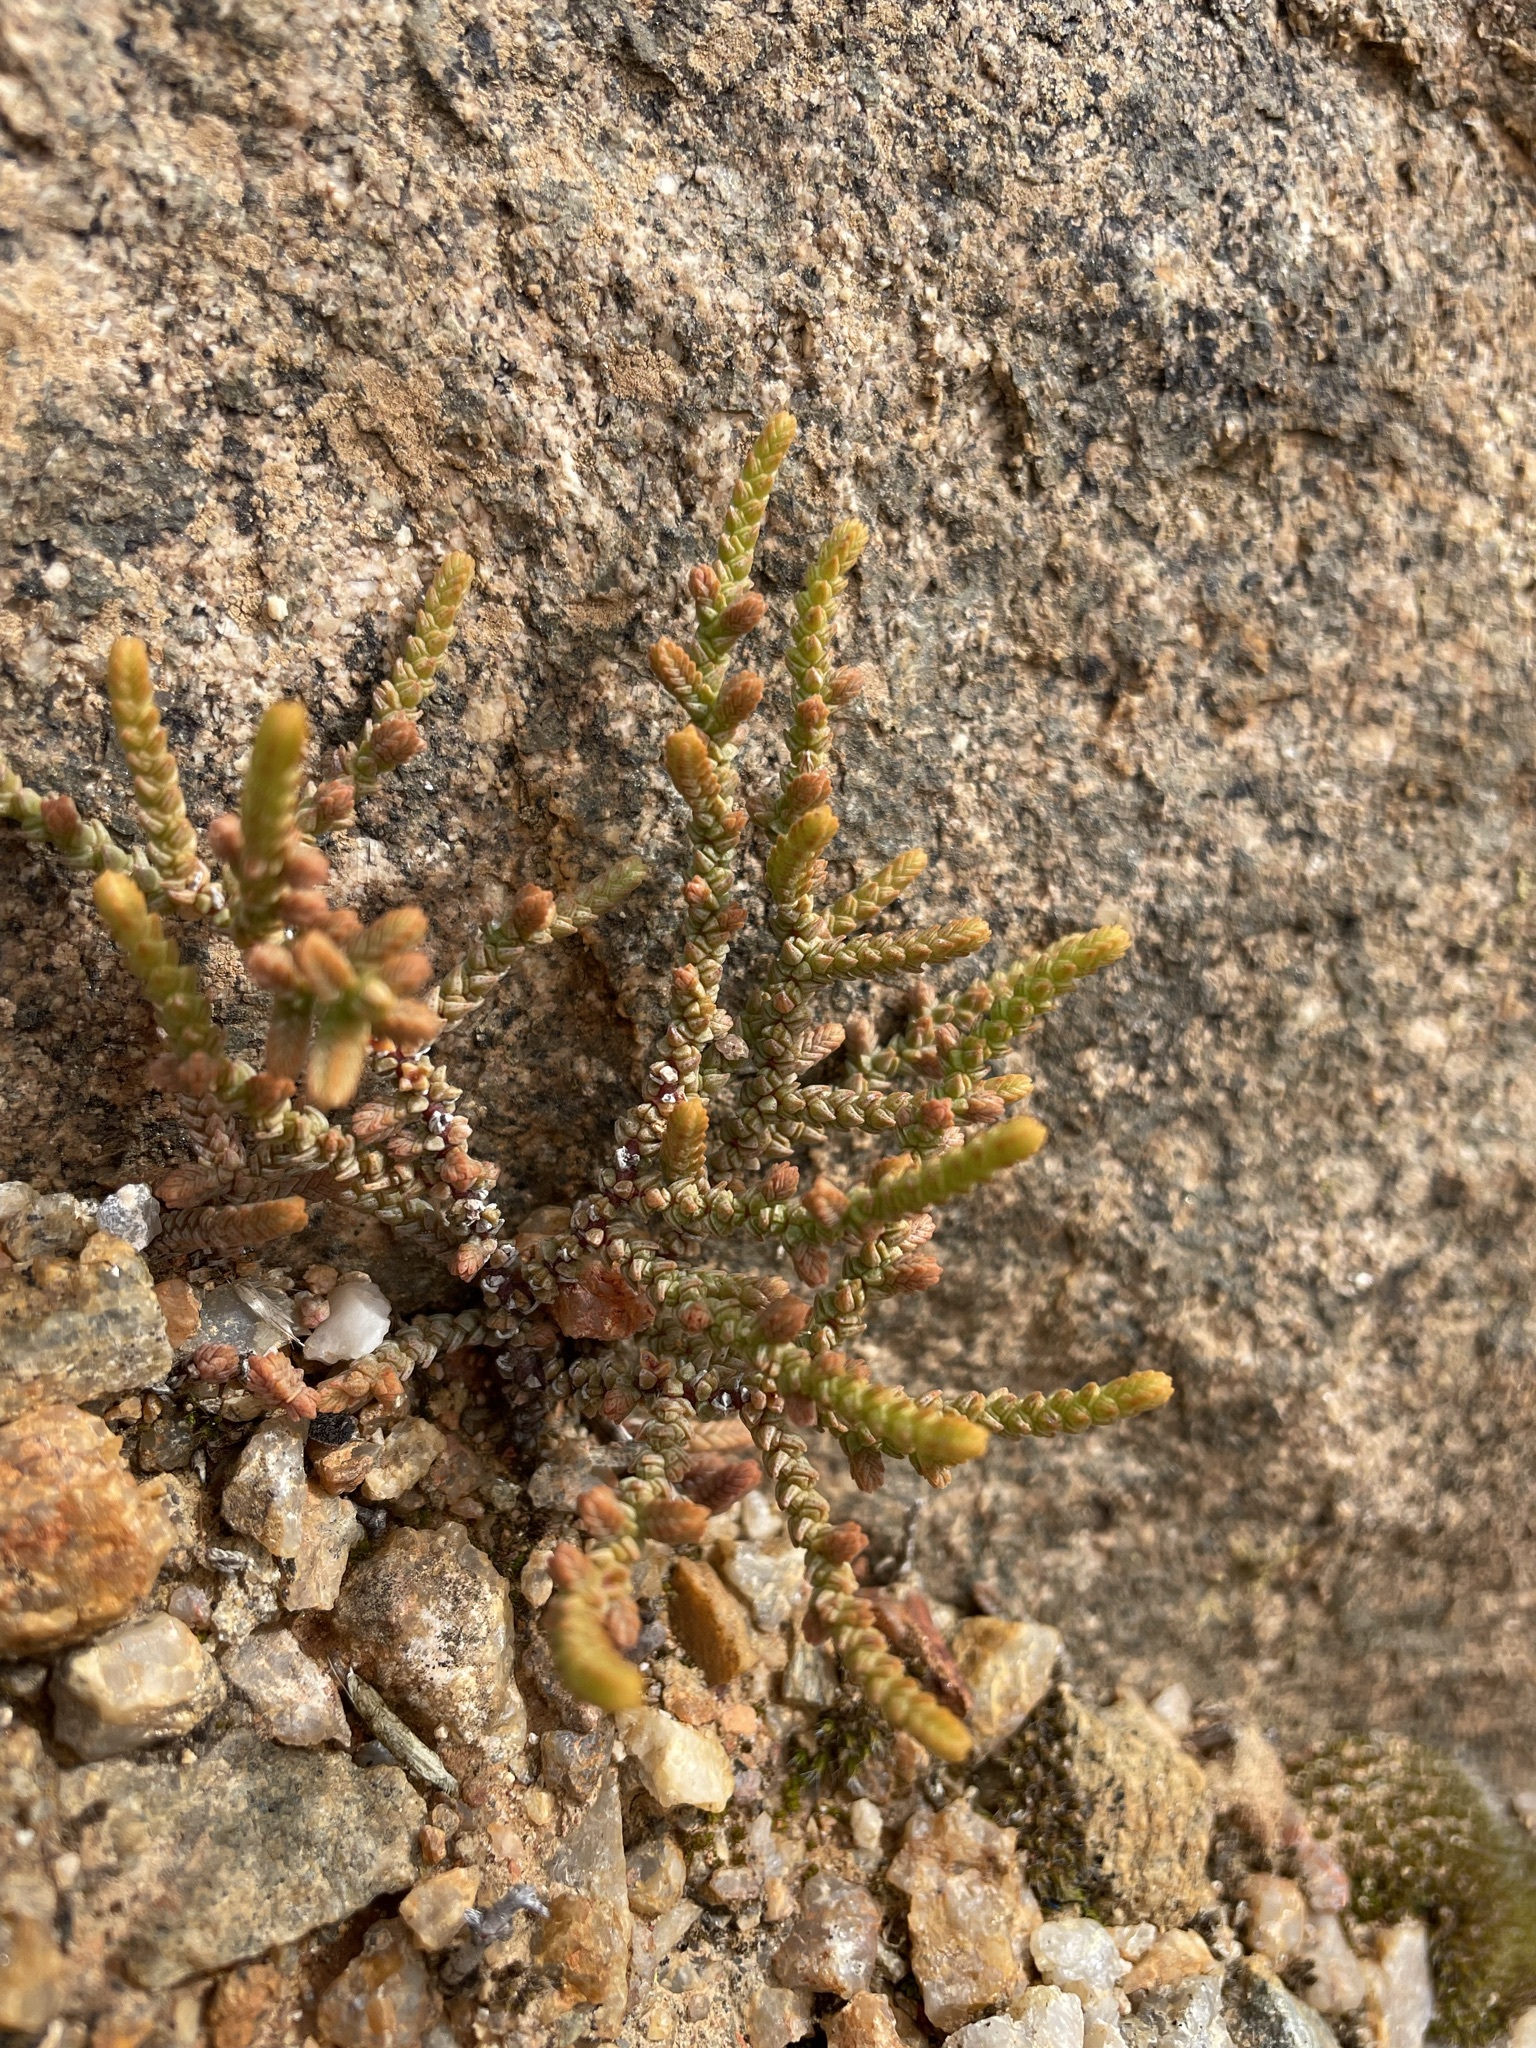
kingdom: Plantae
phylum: Tracheophyta
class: Magnoliopsida
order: Saxifragales
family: Crassulaceae
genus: Crassula
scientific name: Crassula muscosa
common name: Toy-cypress
